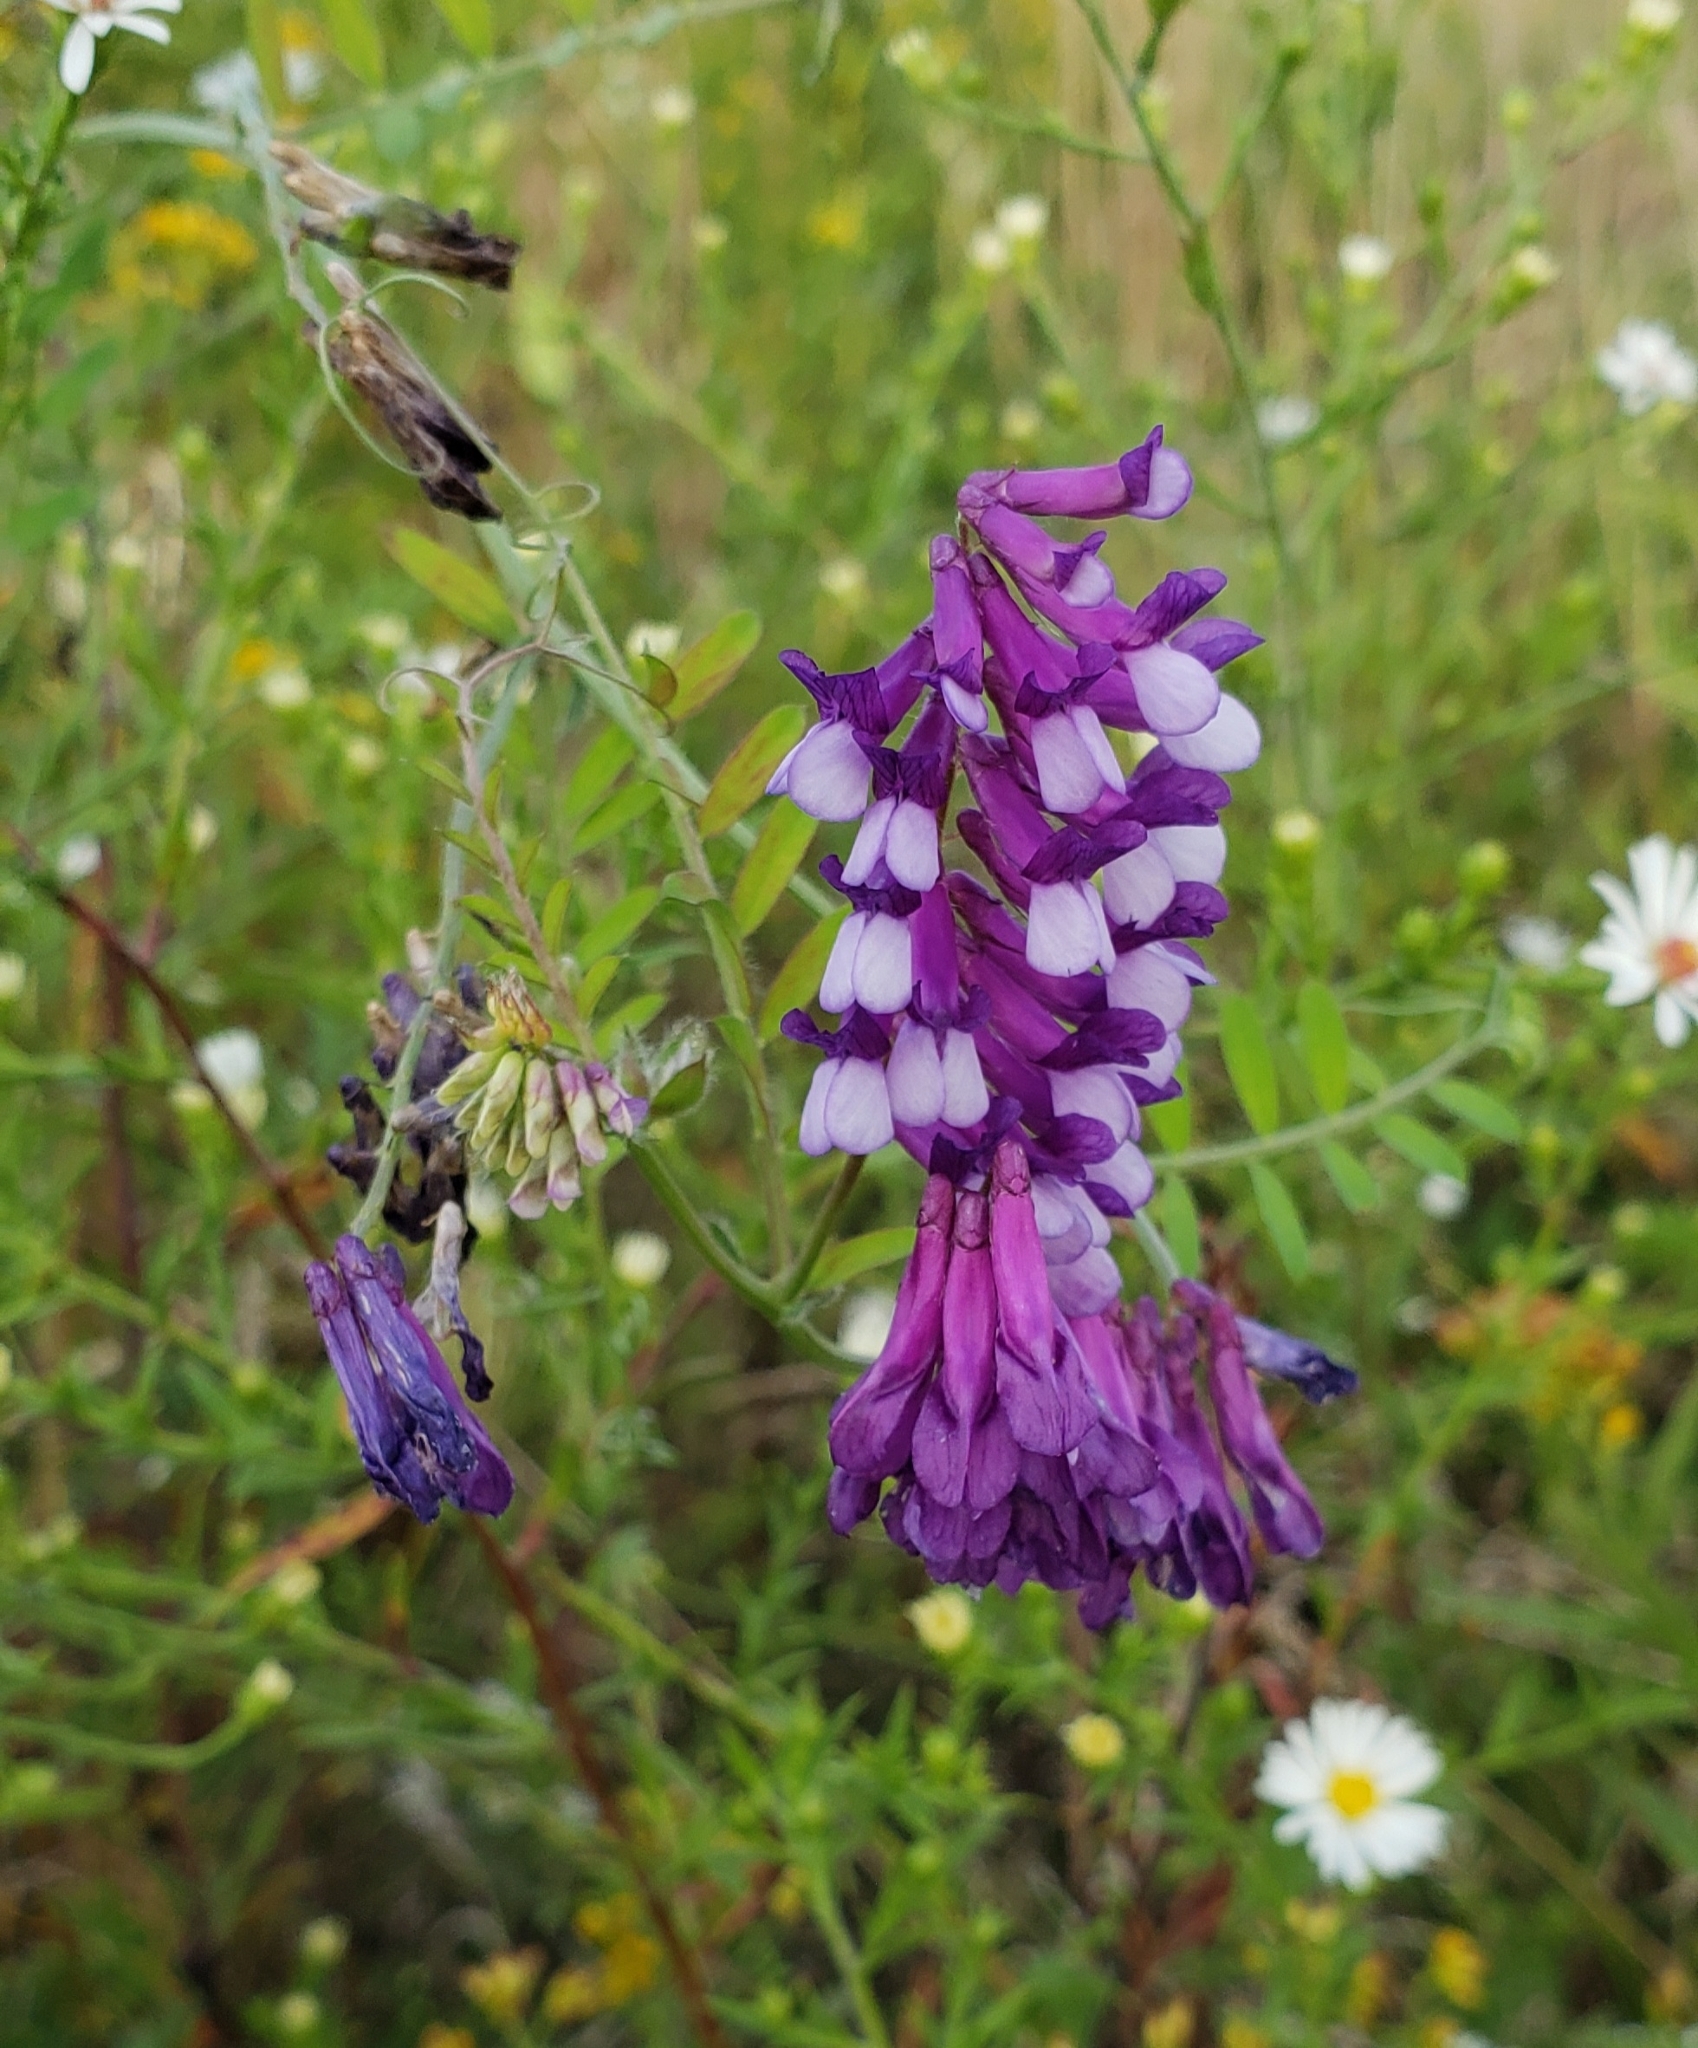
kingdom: Plantae
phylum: Tracheophyta
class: Magnoliopsida
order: Fabales
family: Fabaceae
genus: Vicia
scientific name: Vicia villosa
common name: Fodder vetch
